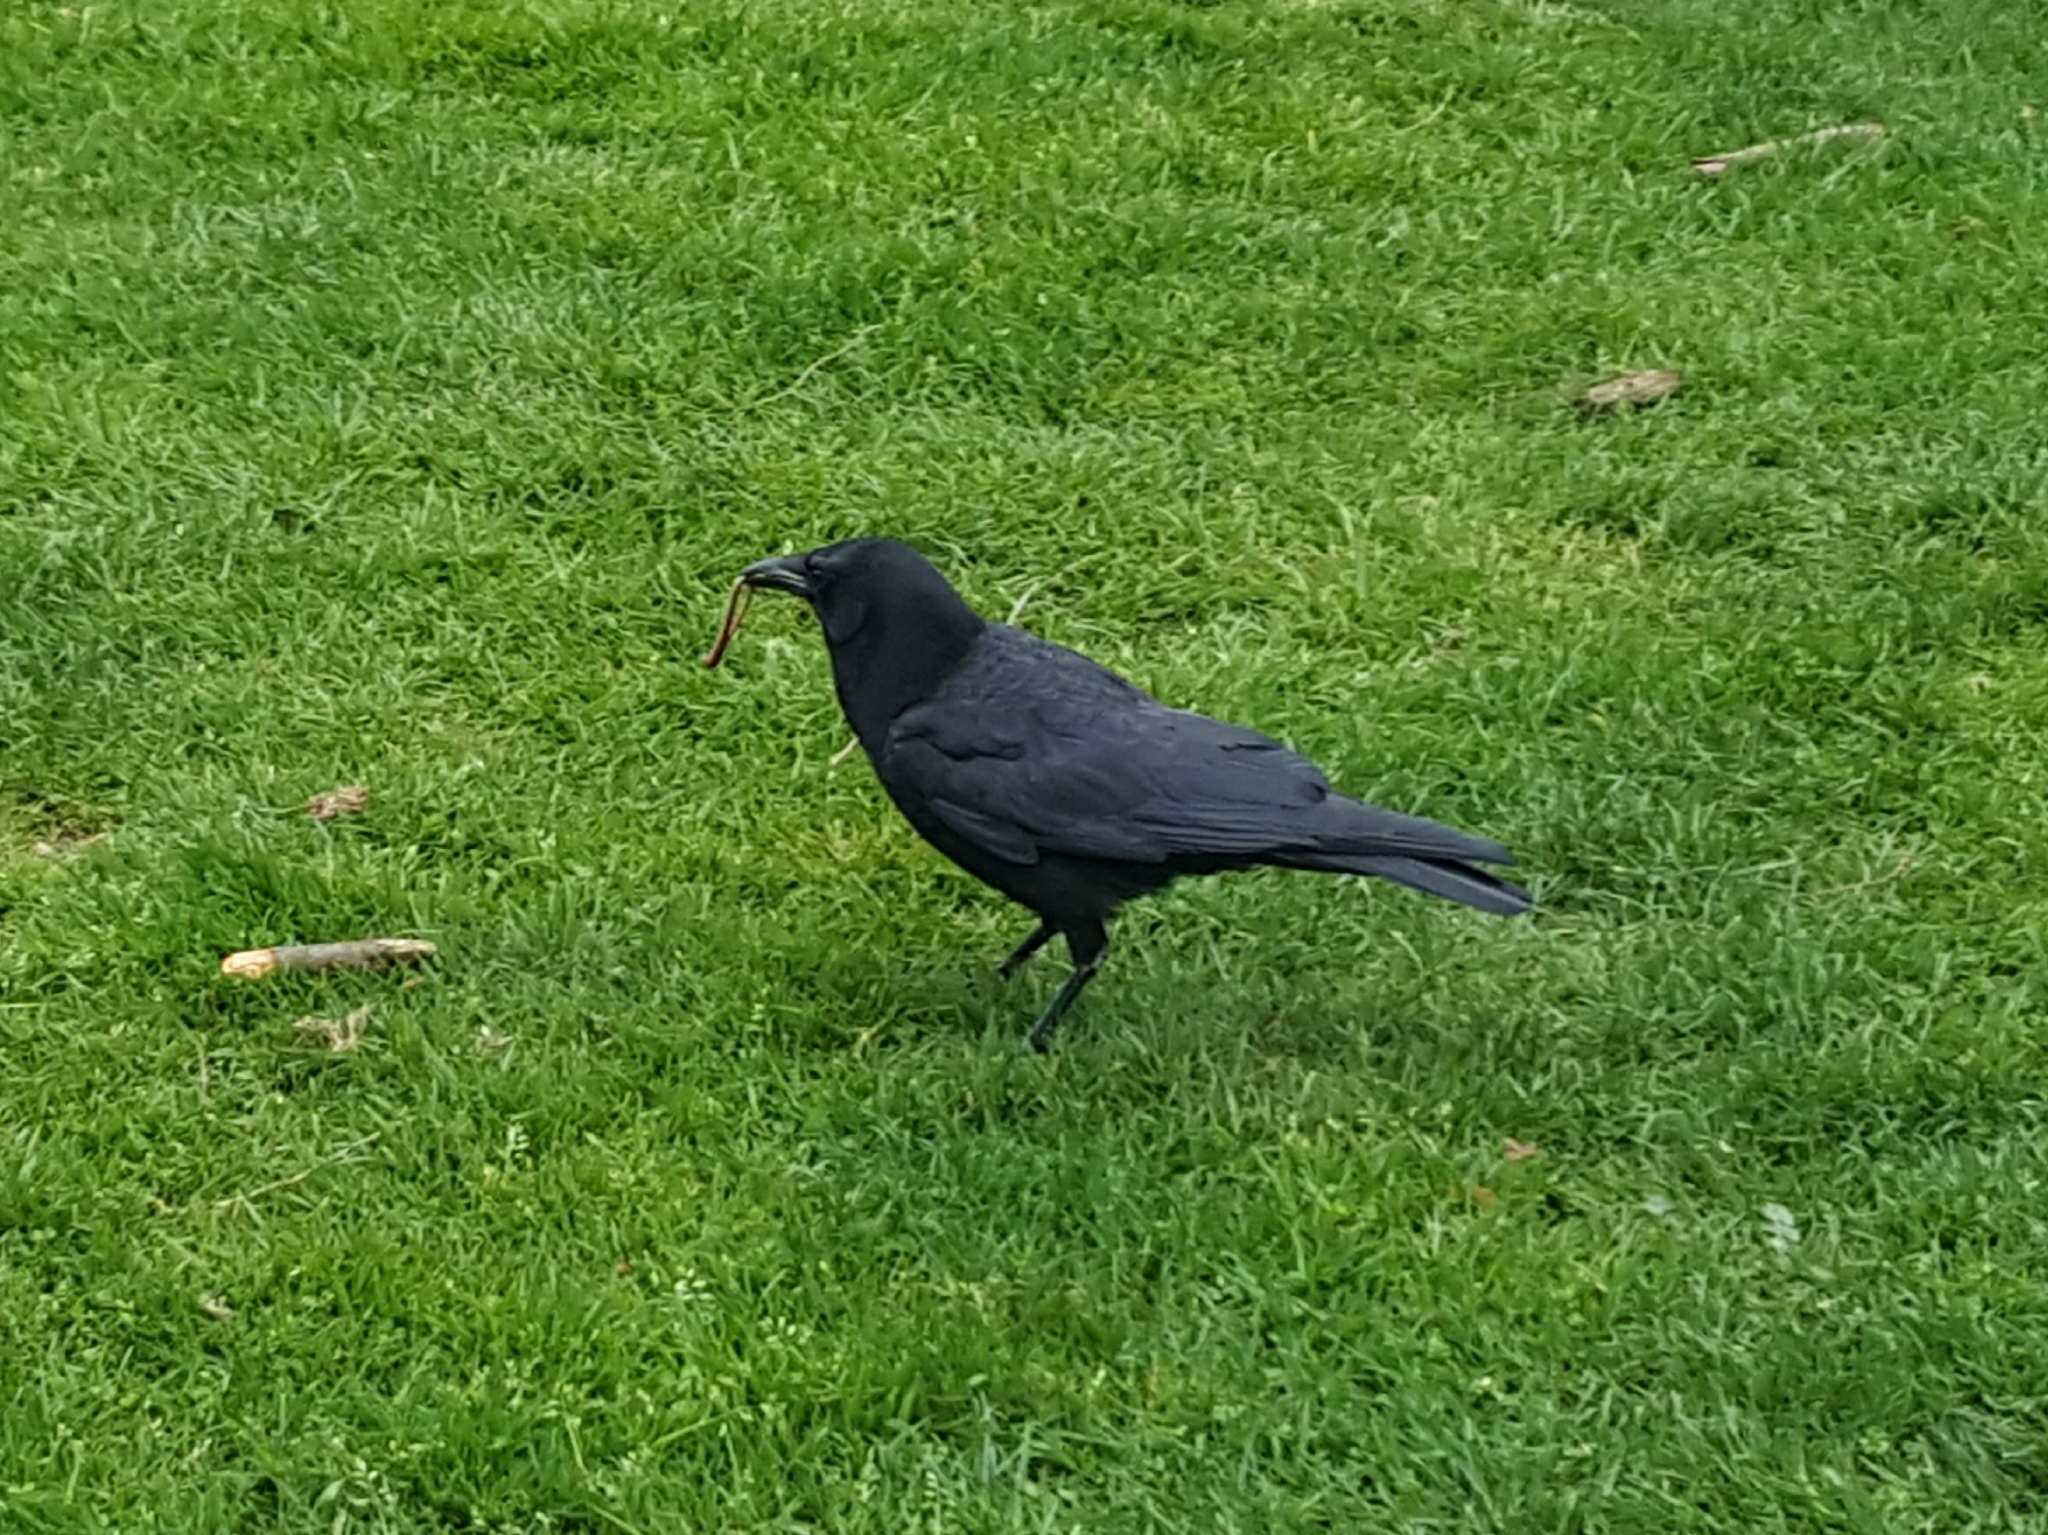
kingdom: Animalia
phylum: Chordata
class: Aves
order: Passeriformes
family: Corvidae
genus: Corvus
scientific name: Corvus brachyrhynchos
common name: American crow
